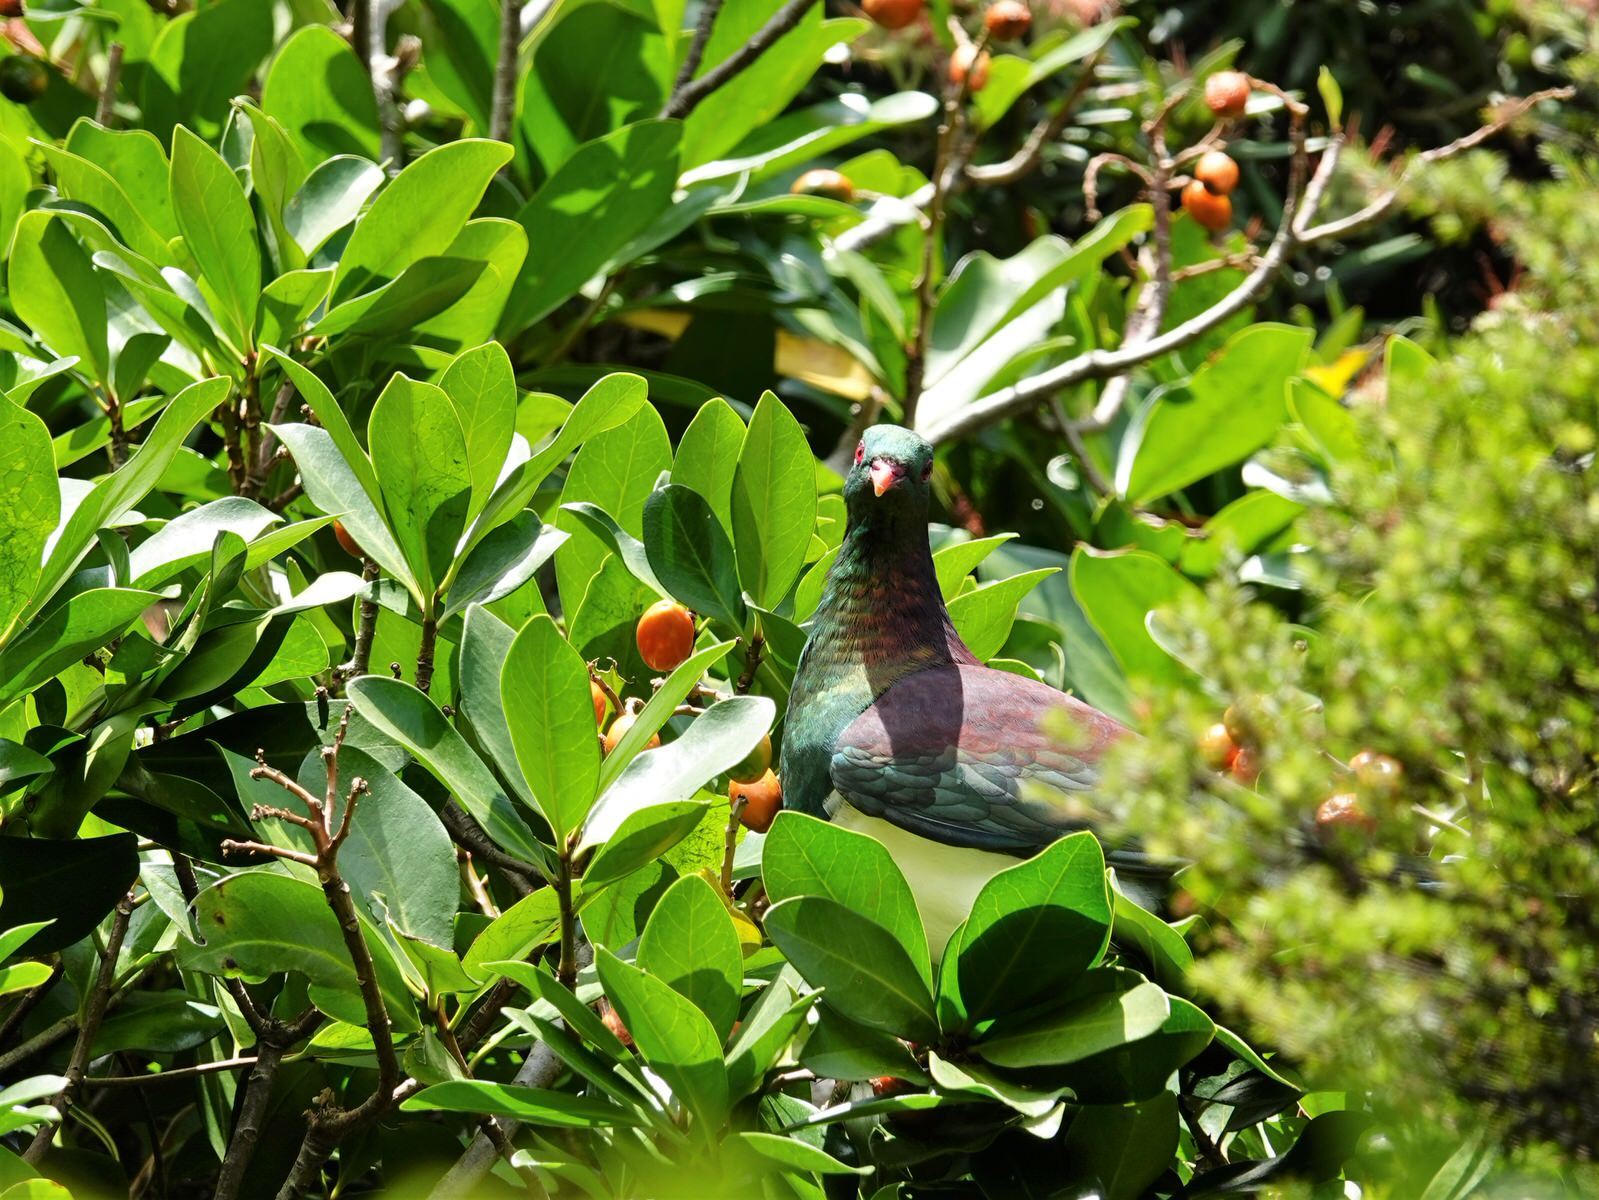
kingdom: Animalia
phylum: Chordata
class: Aves
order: Columbiformes
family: Columbidae
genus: Hemiphaga
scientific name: Hemiphaga novaeseelandiae
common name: New zealand pigeon
